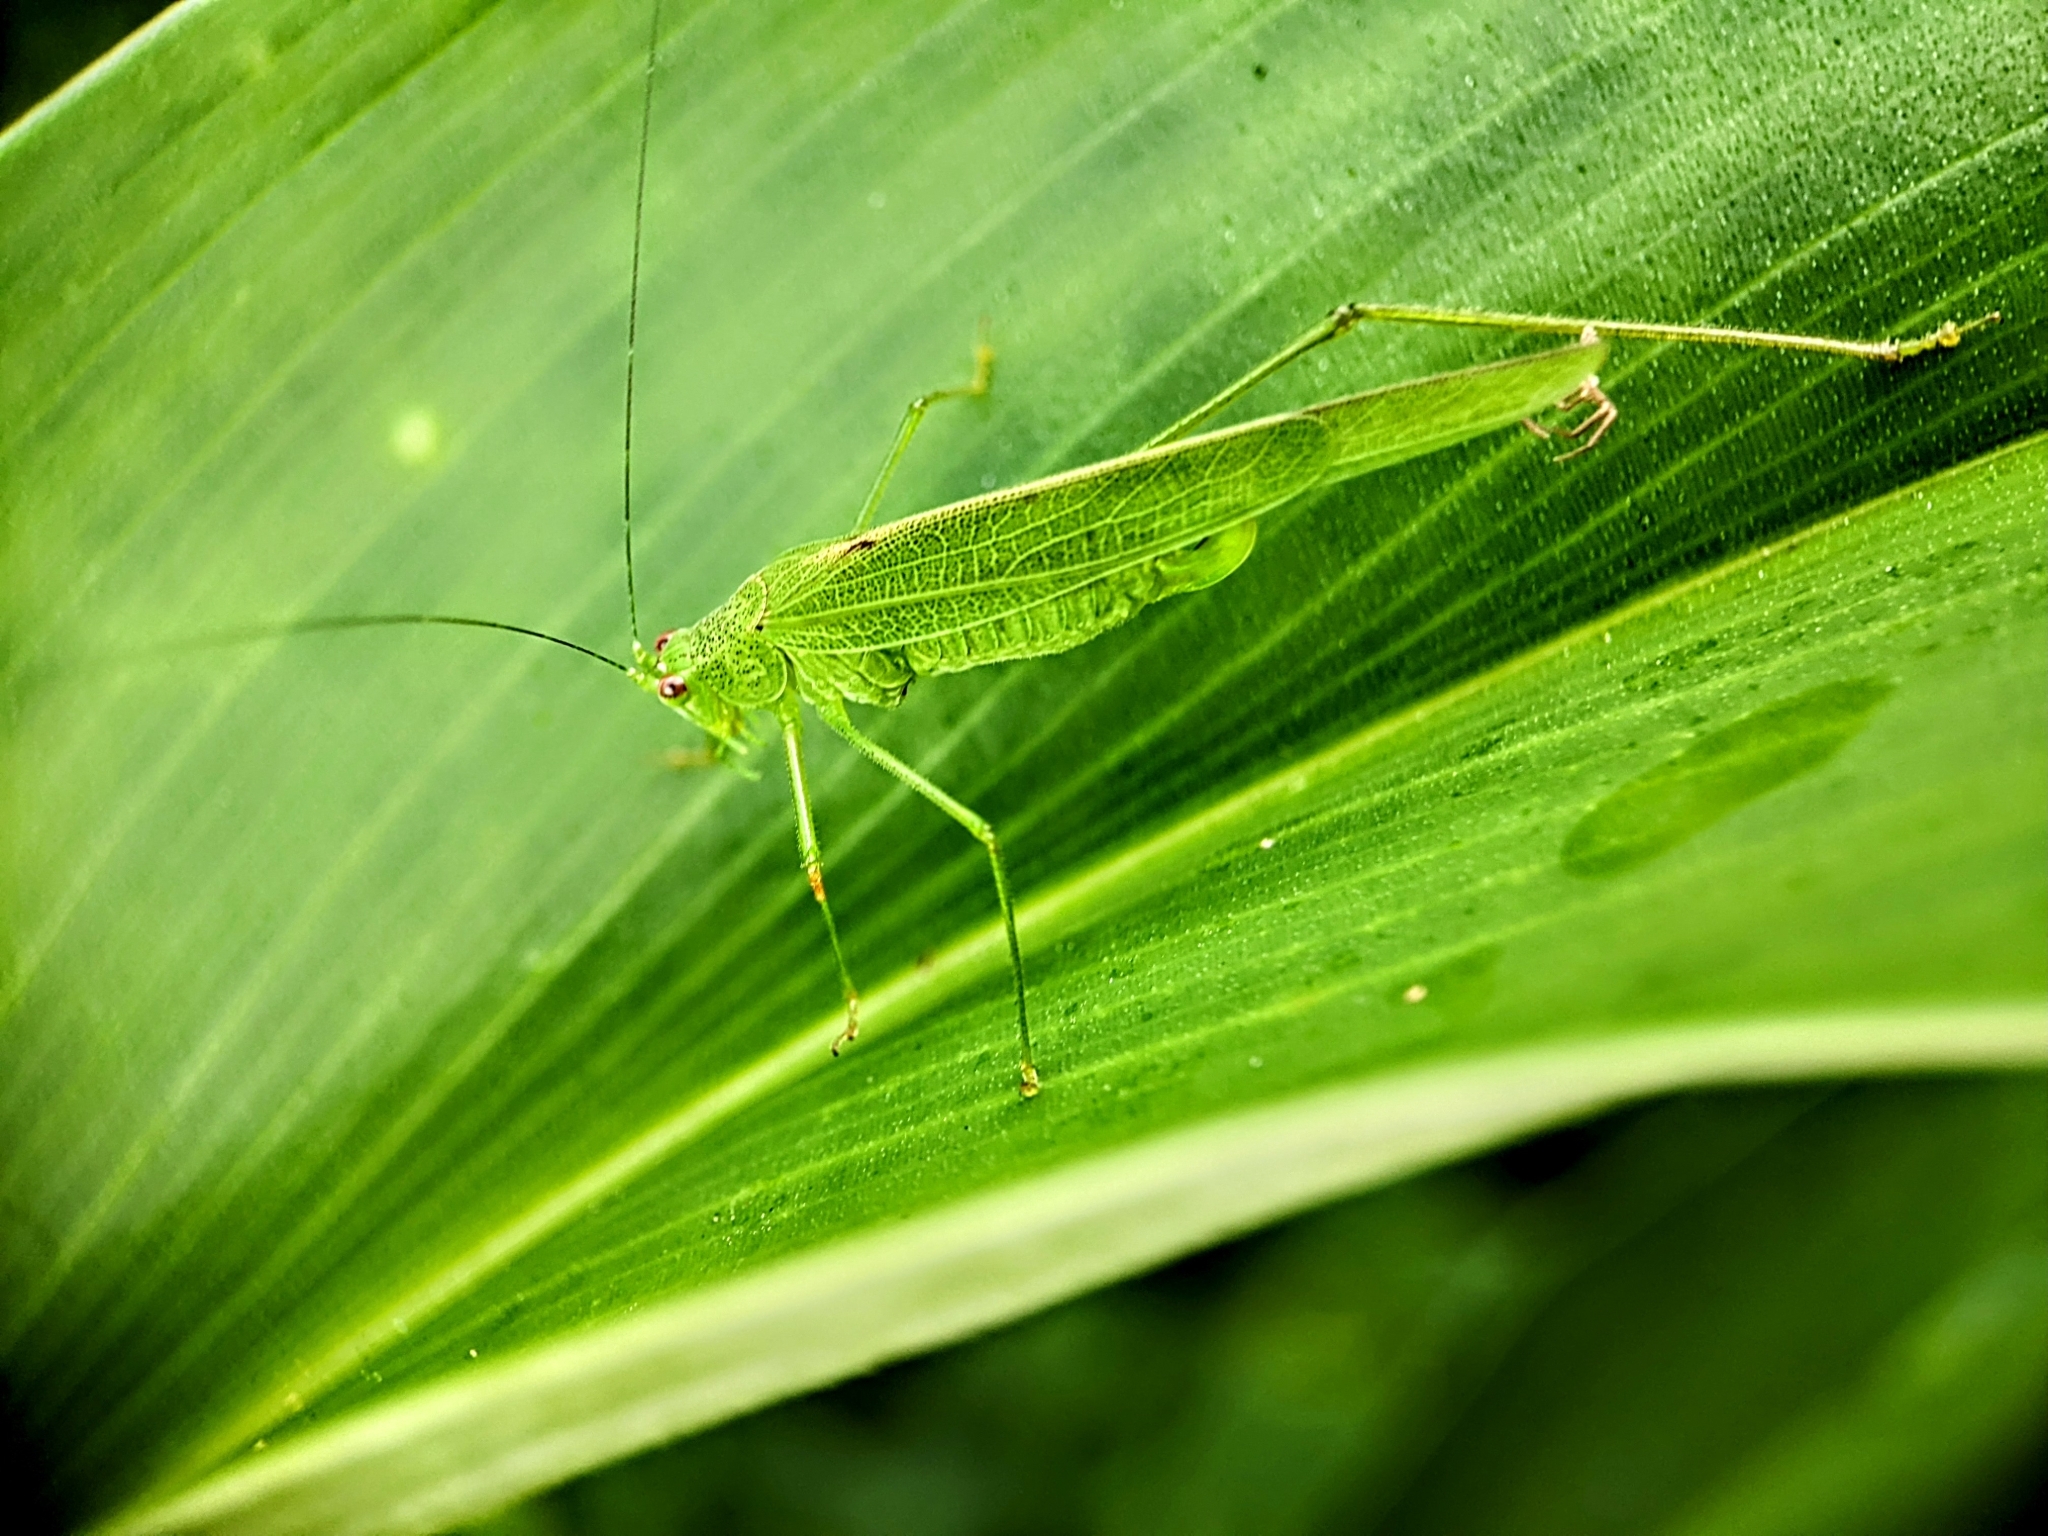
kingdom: Animalia
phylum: Arthropoda
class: Insecta
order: Orthoptera
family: Tettigoniidae
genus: Phaneroptera
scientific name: Phaneroptera brevis
